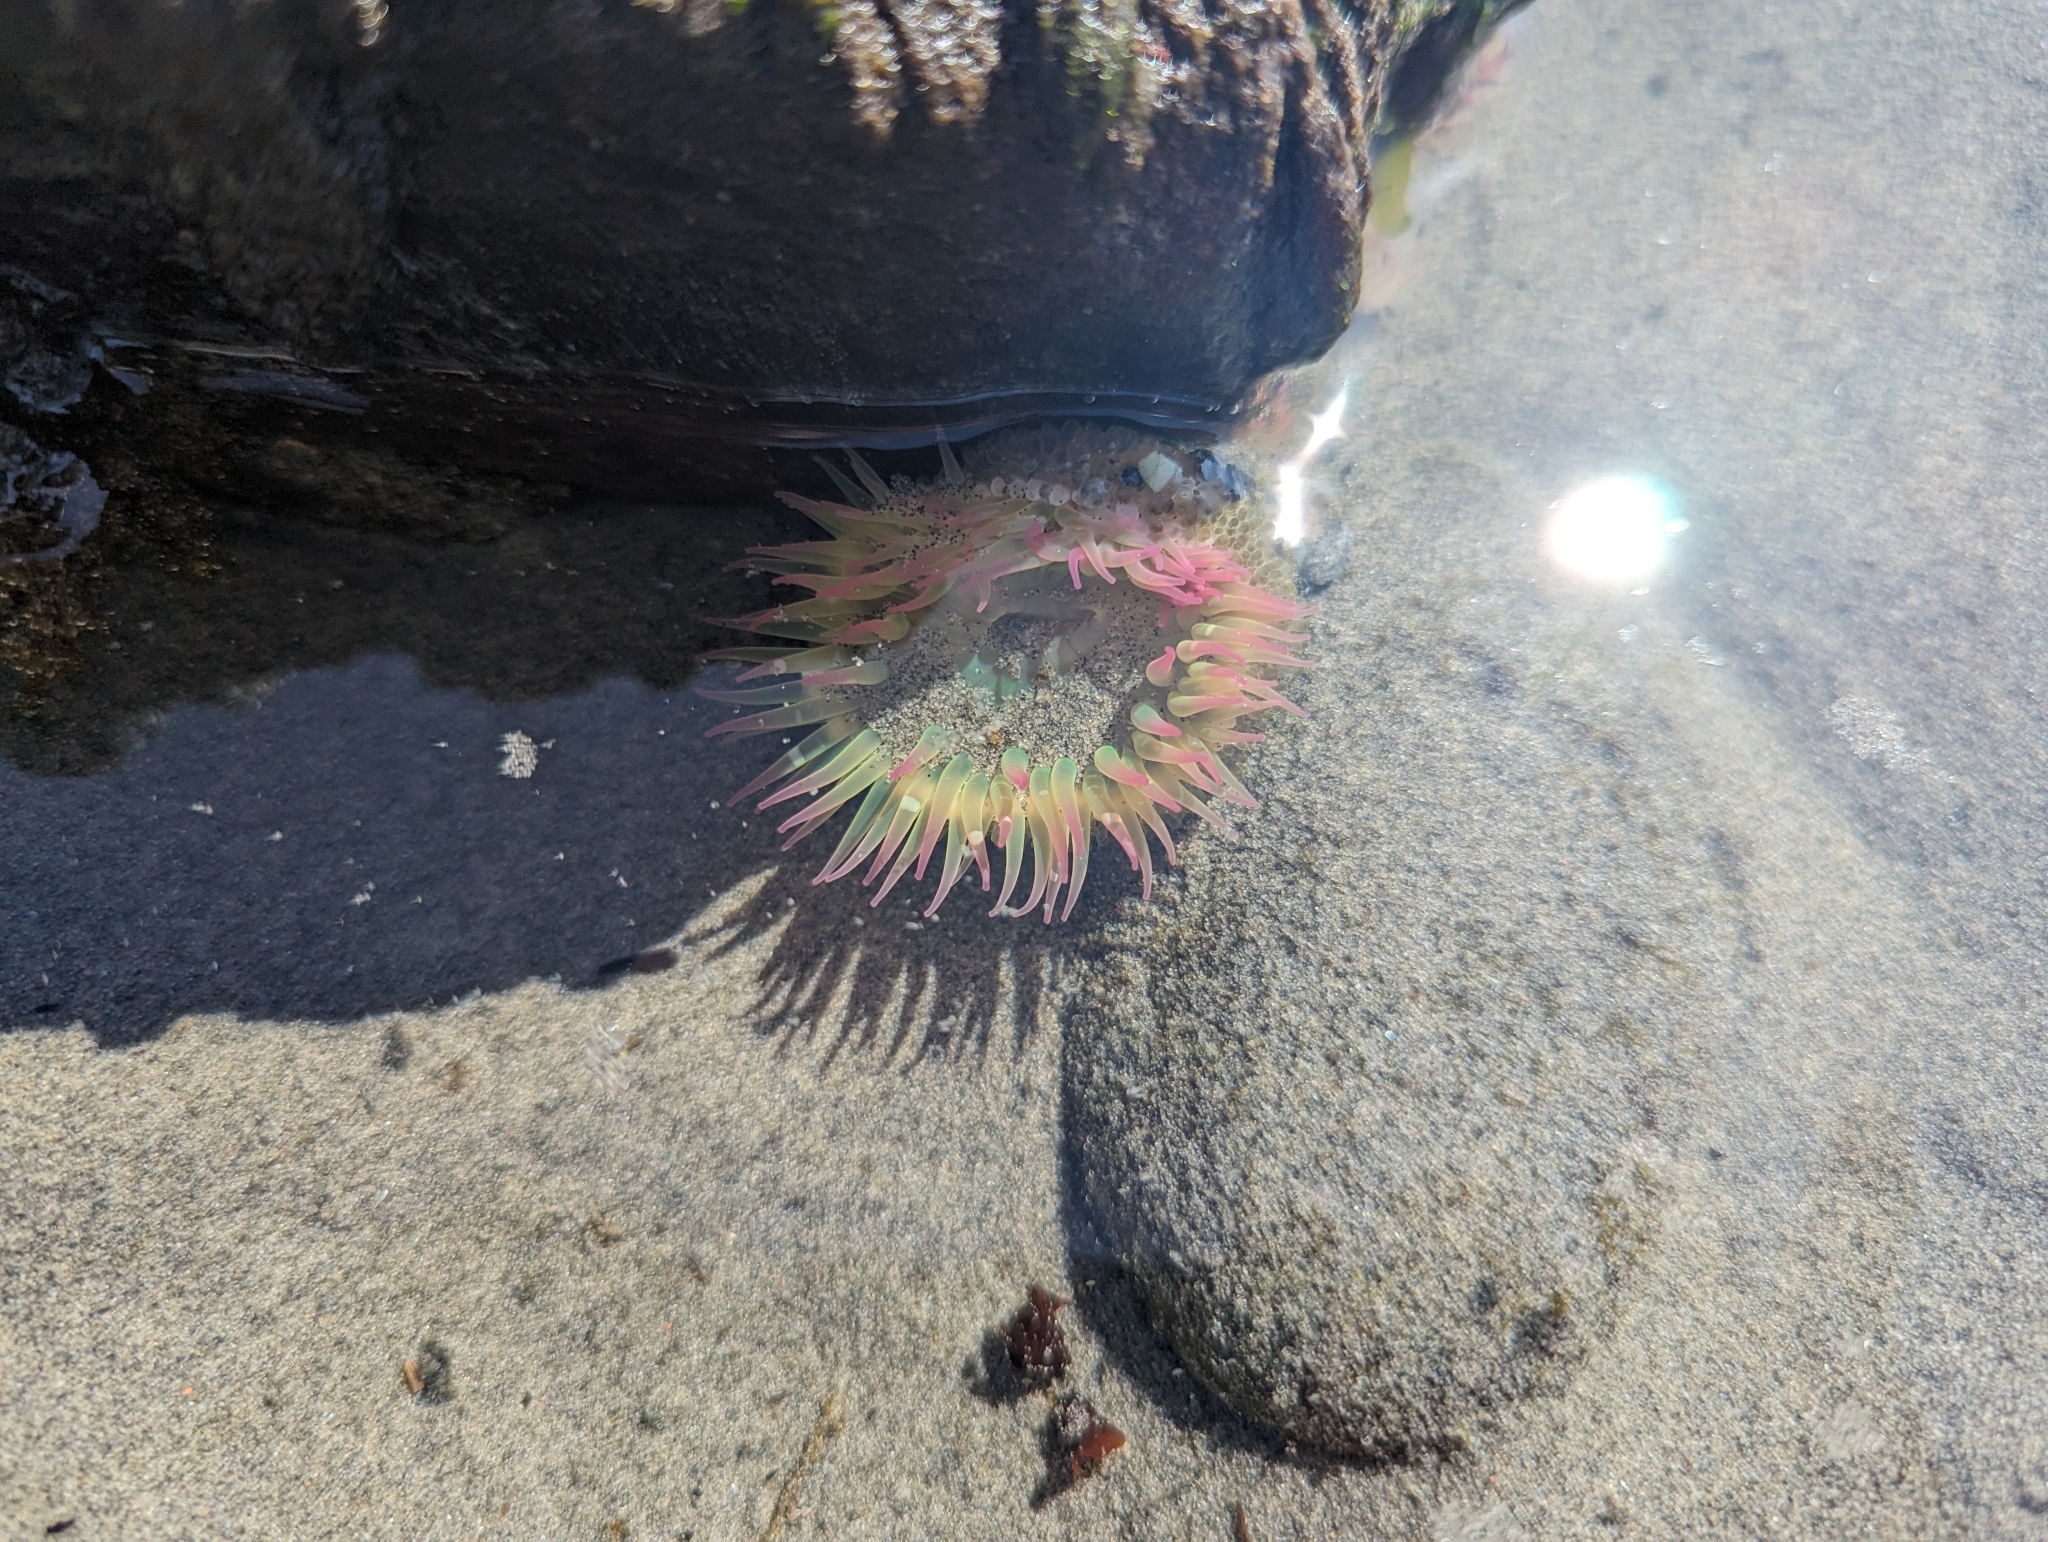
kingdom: Animalia
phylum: Cnidaria
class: Anthozoa
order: Actiniaria
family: Actiniidae
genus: Anthopleura
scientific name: Anthopleura elegantissima
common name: Clonal anemone
